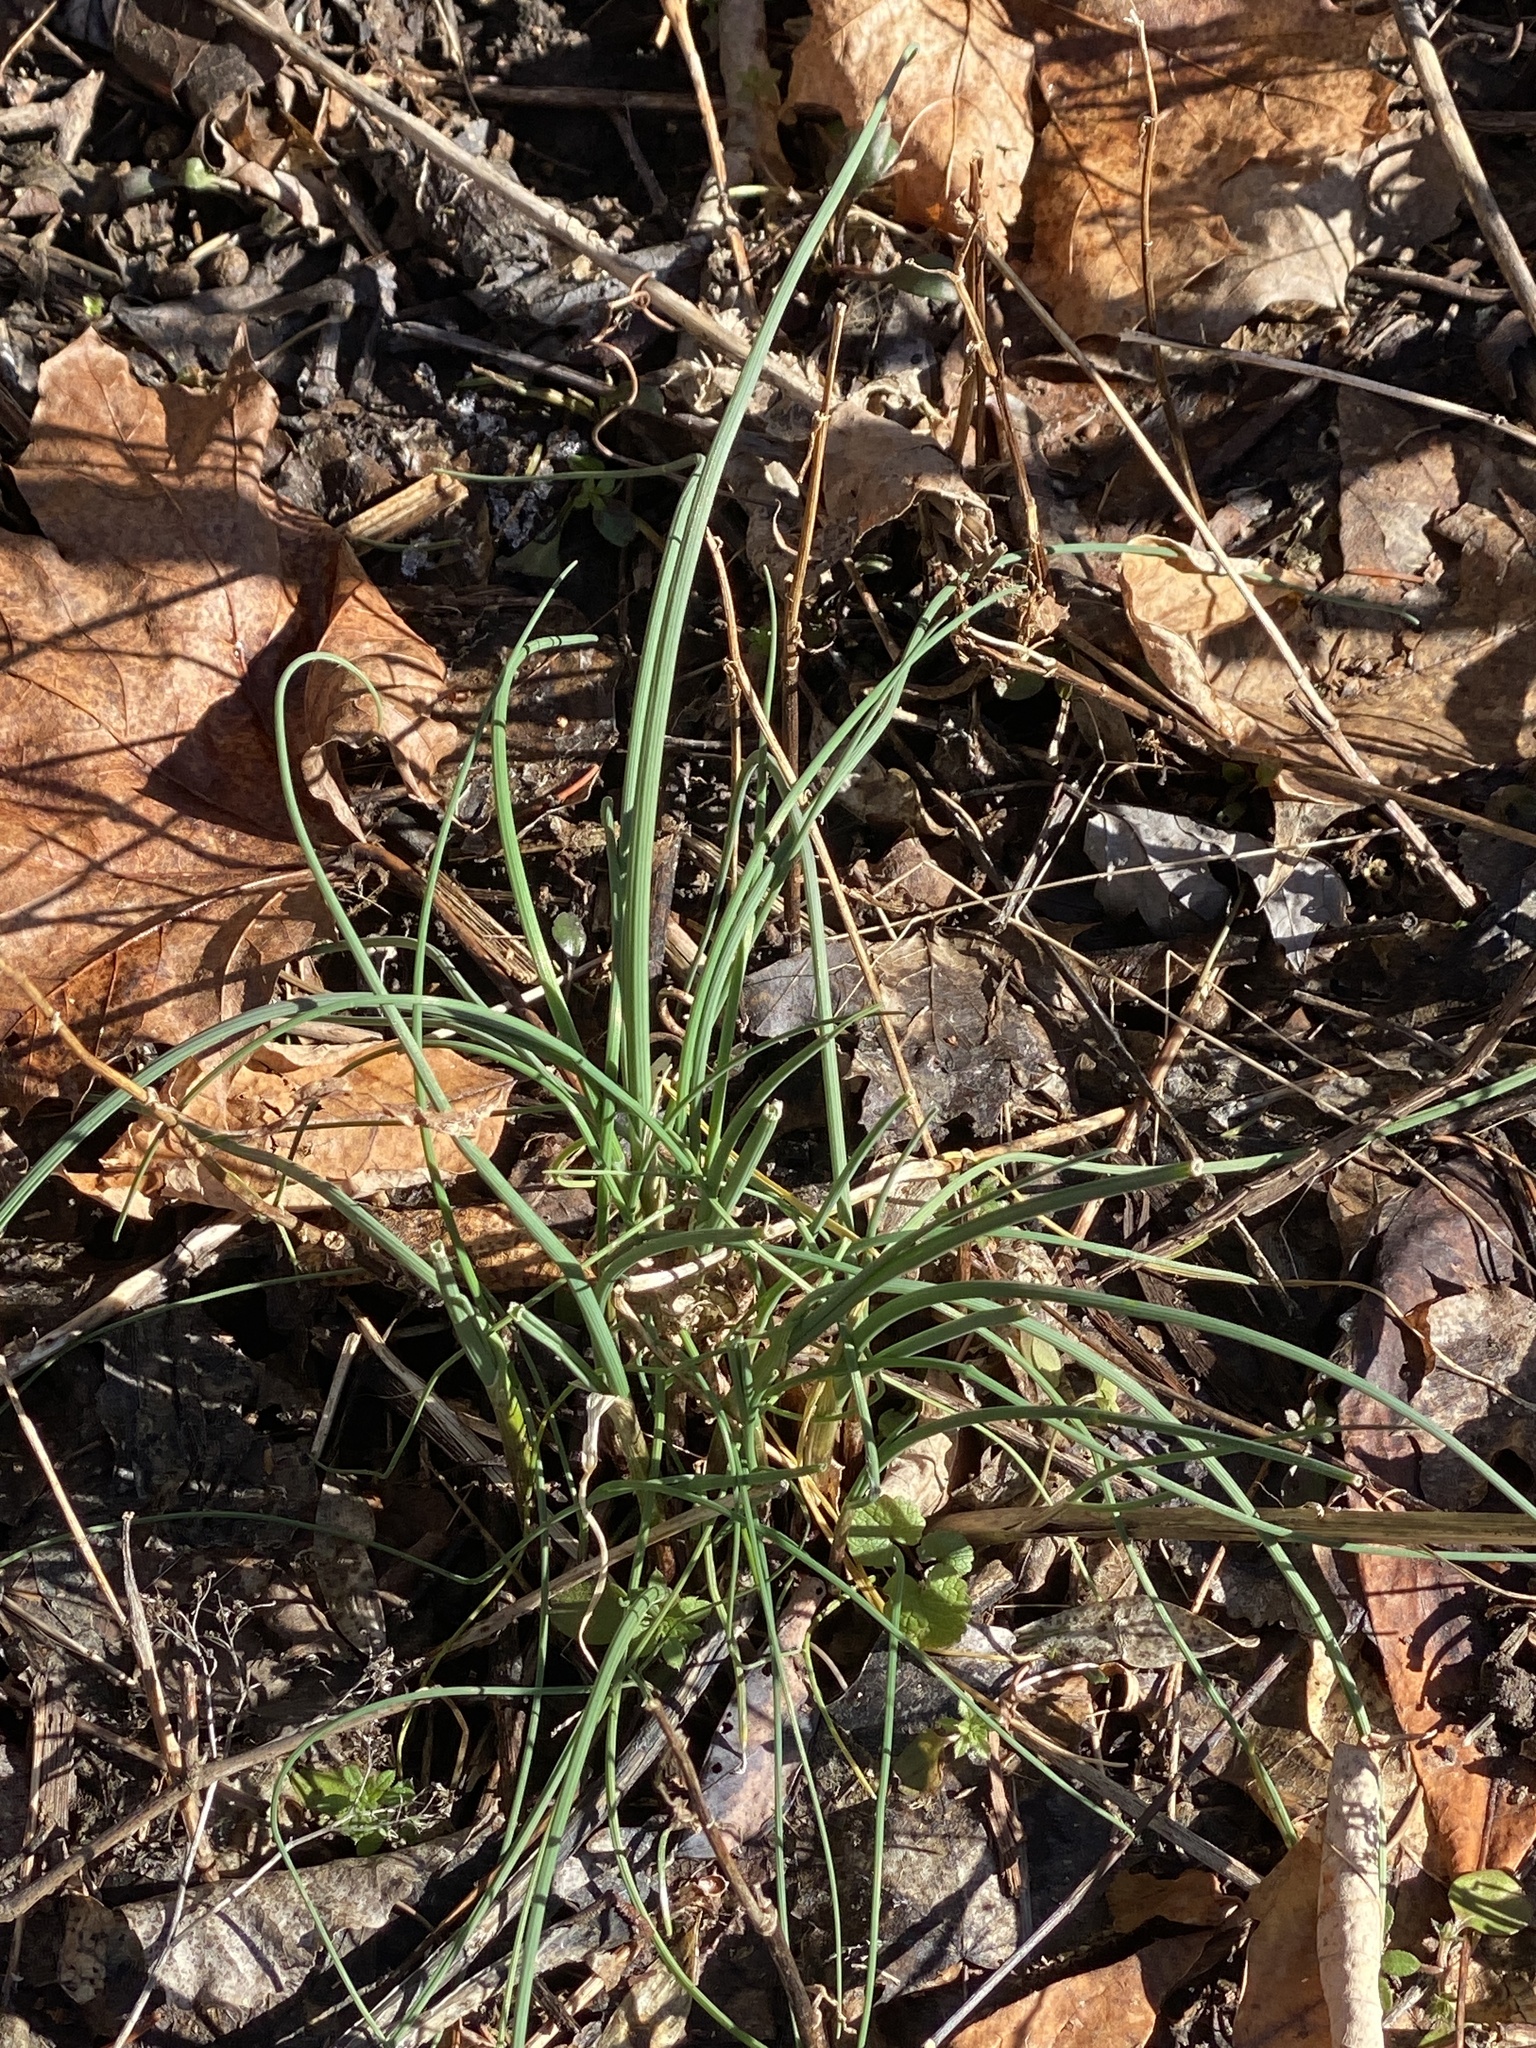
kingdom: Plantae
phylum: Tracheophyta
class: Liliopsida
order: Asparagales
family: Amaryllidaceae
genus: Allium
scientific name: Allium vineale
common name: Crow garlic
